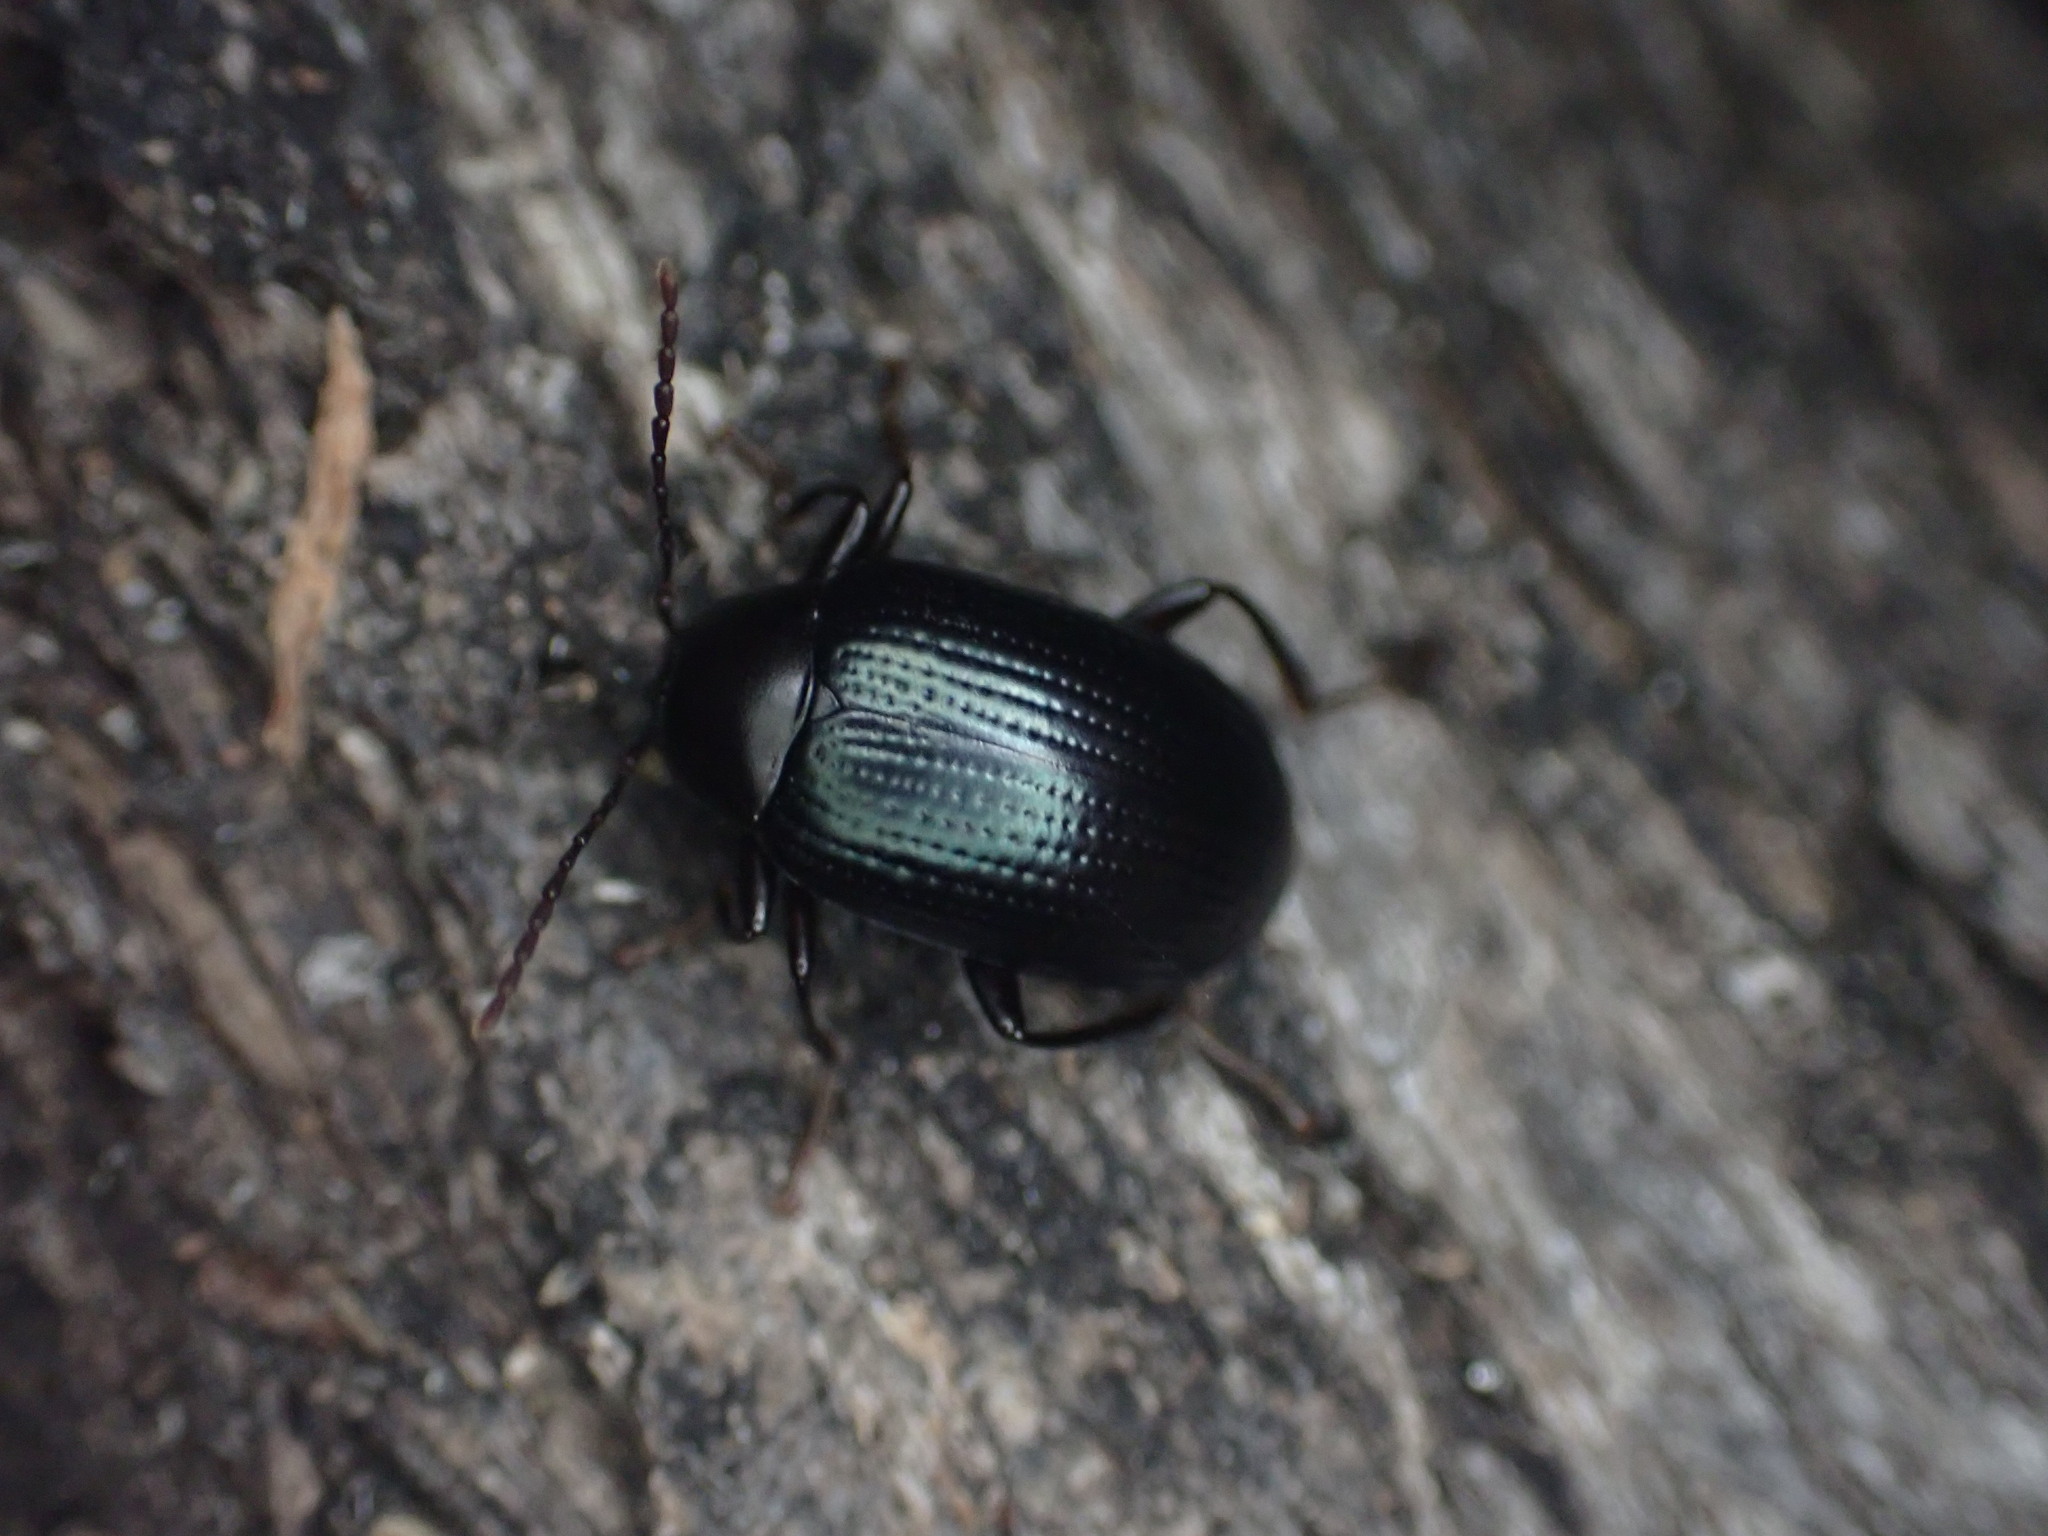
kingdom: Animalia
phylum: Arthropoda
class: Insecta
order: Coleoptera
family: Tenebrionidae
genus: Amarygmus
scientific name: Amarygmus
